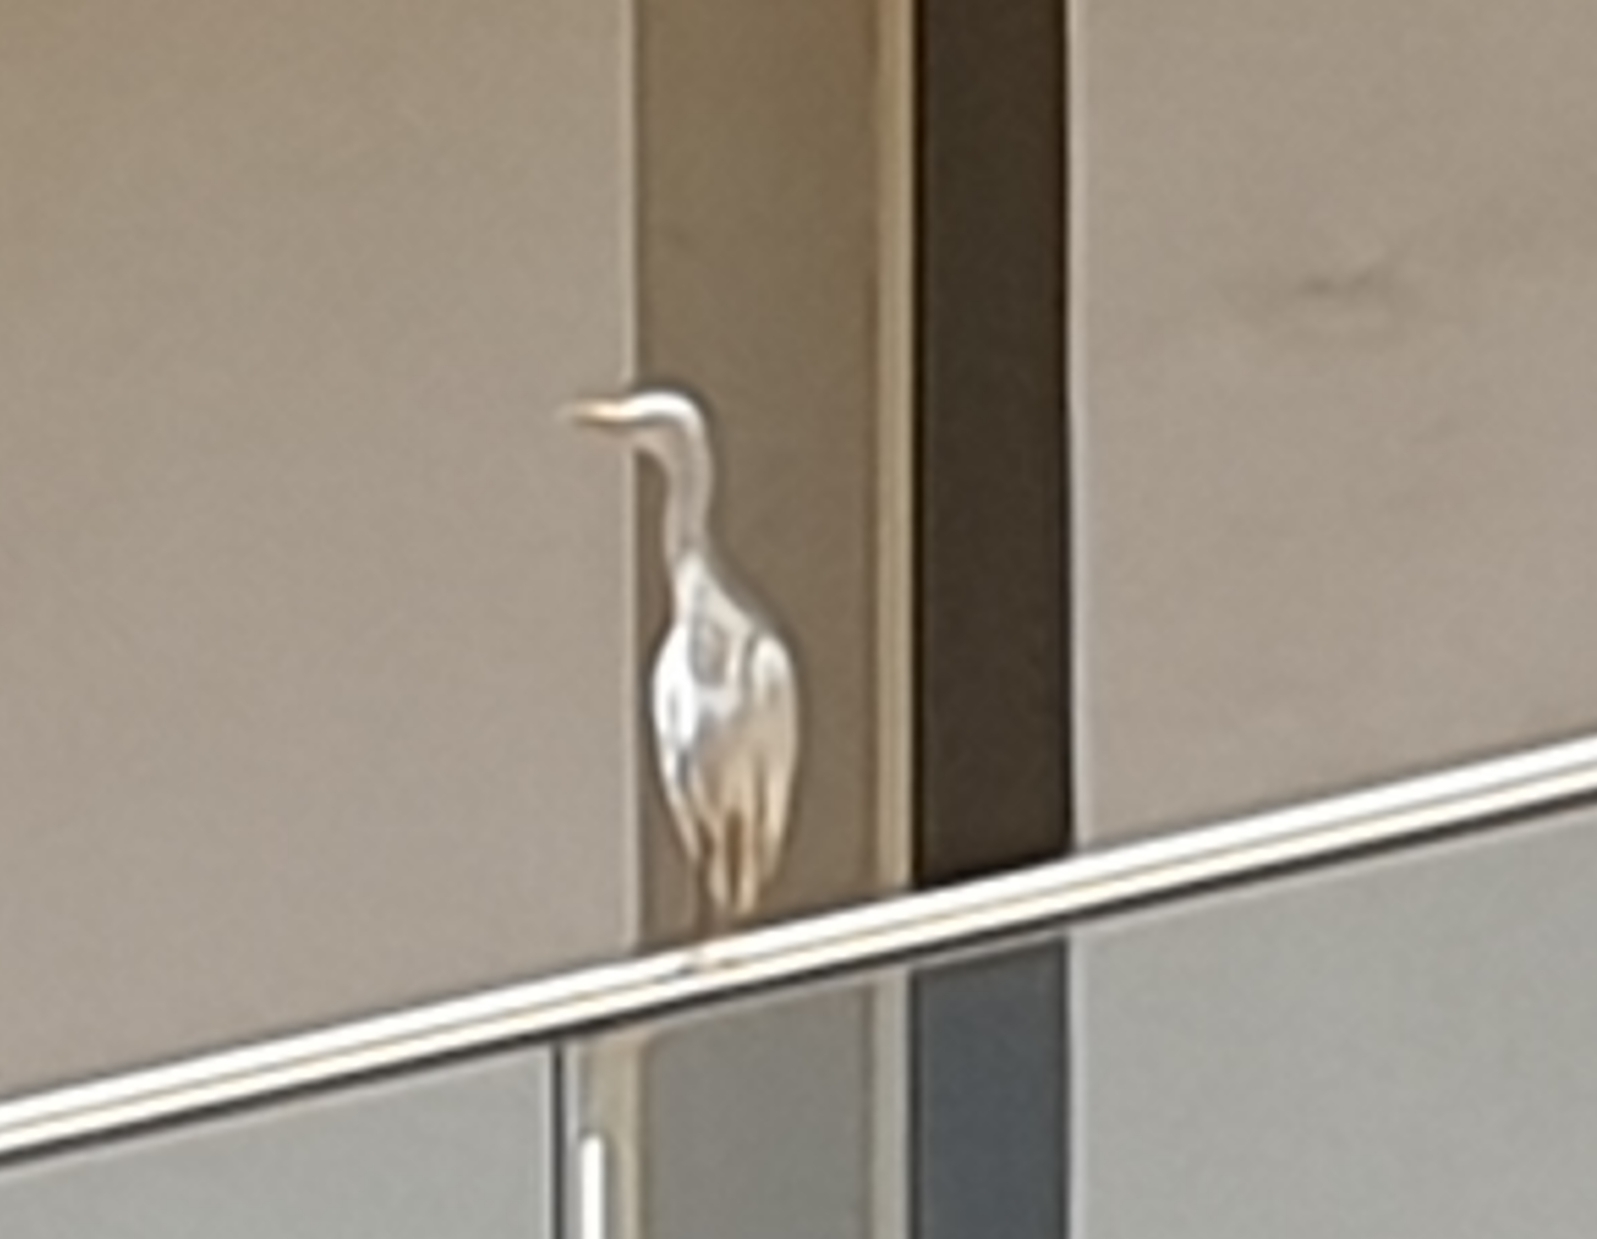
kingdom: Animalia
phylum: Chordata
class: Aves
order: Pelecaniformes
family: Ardeidae
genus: Bubulcus
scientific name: Bubulcus ibis
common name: Cattle egret
